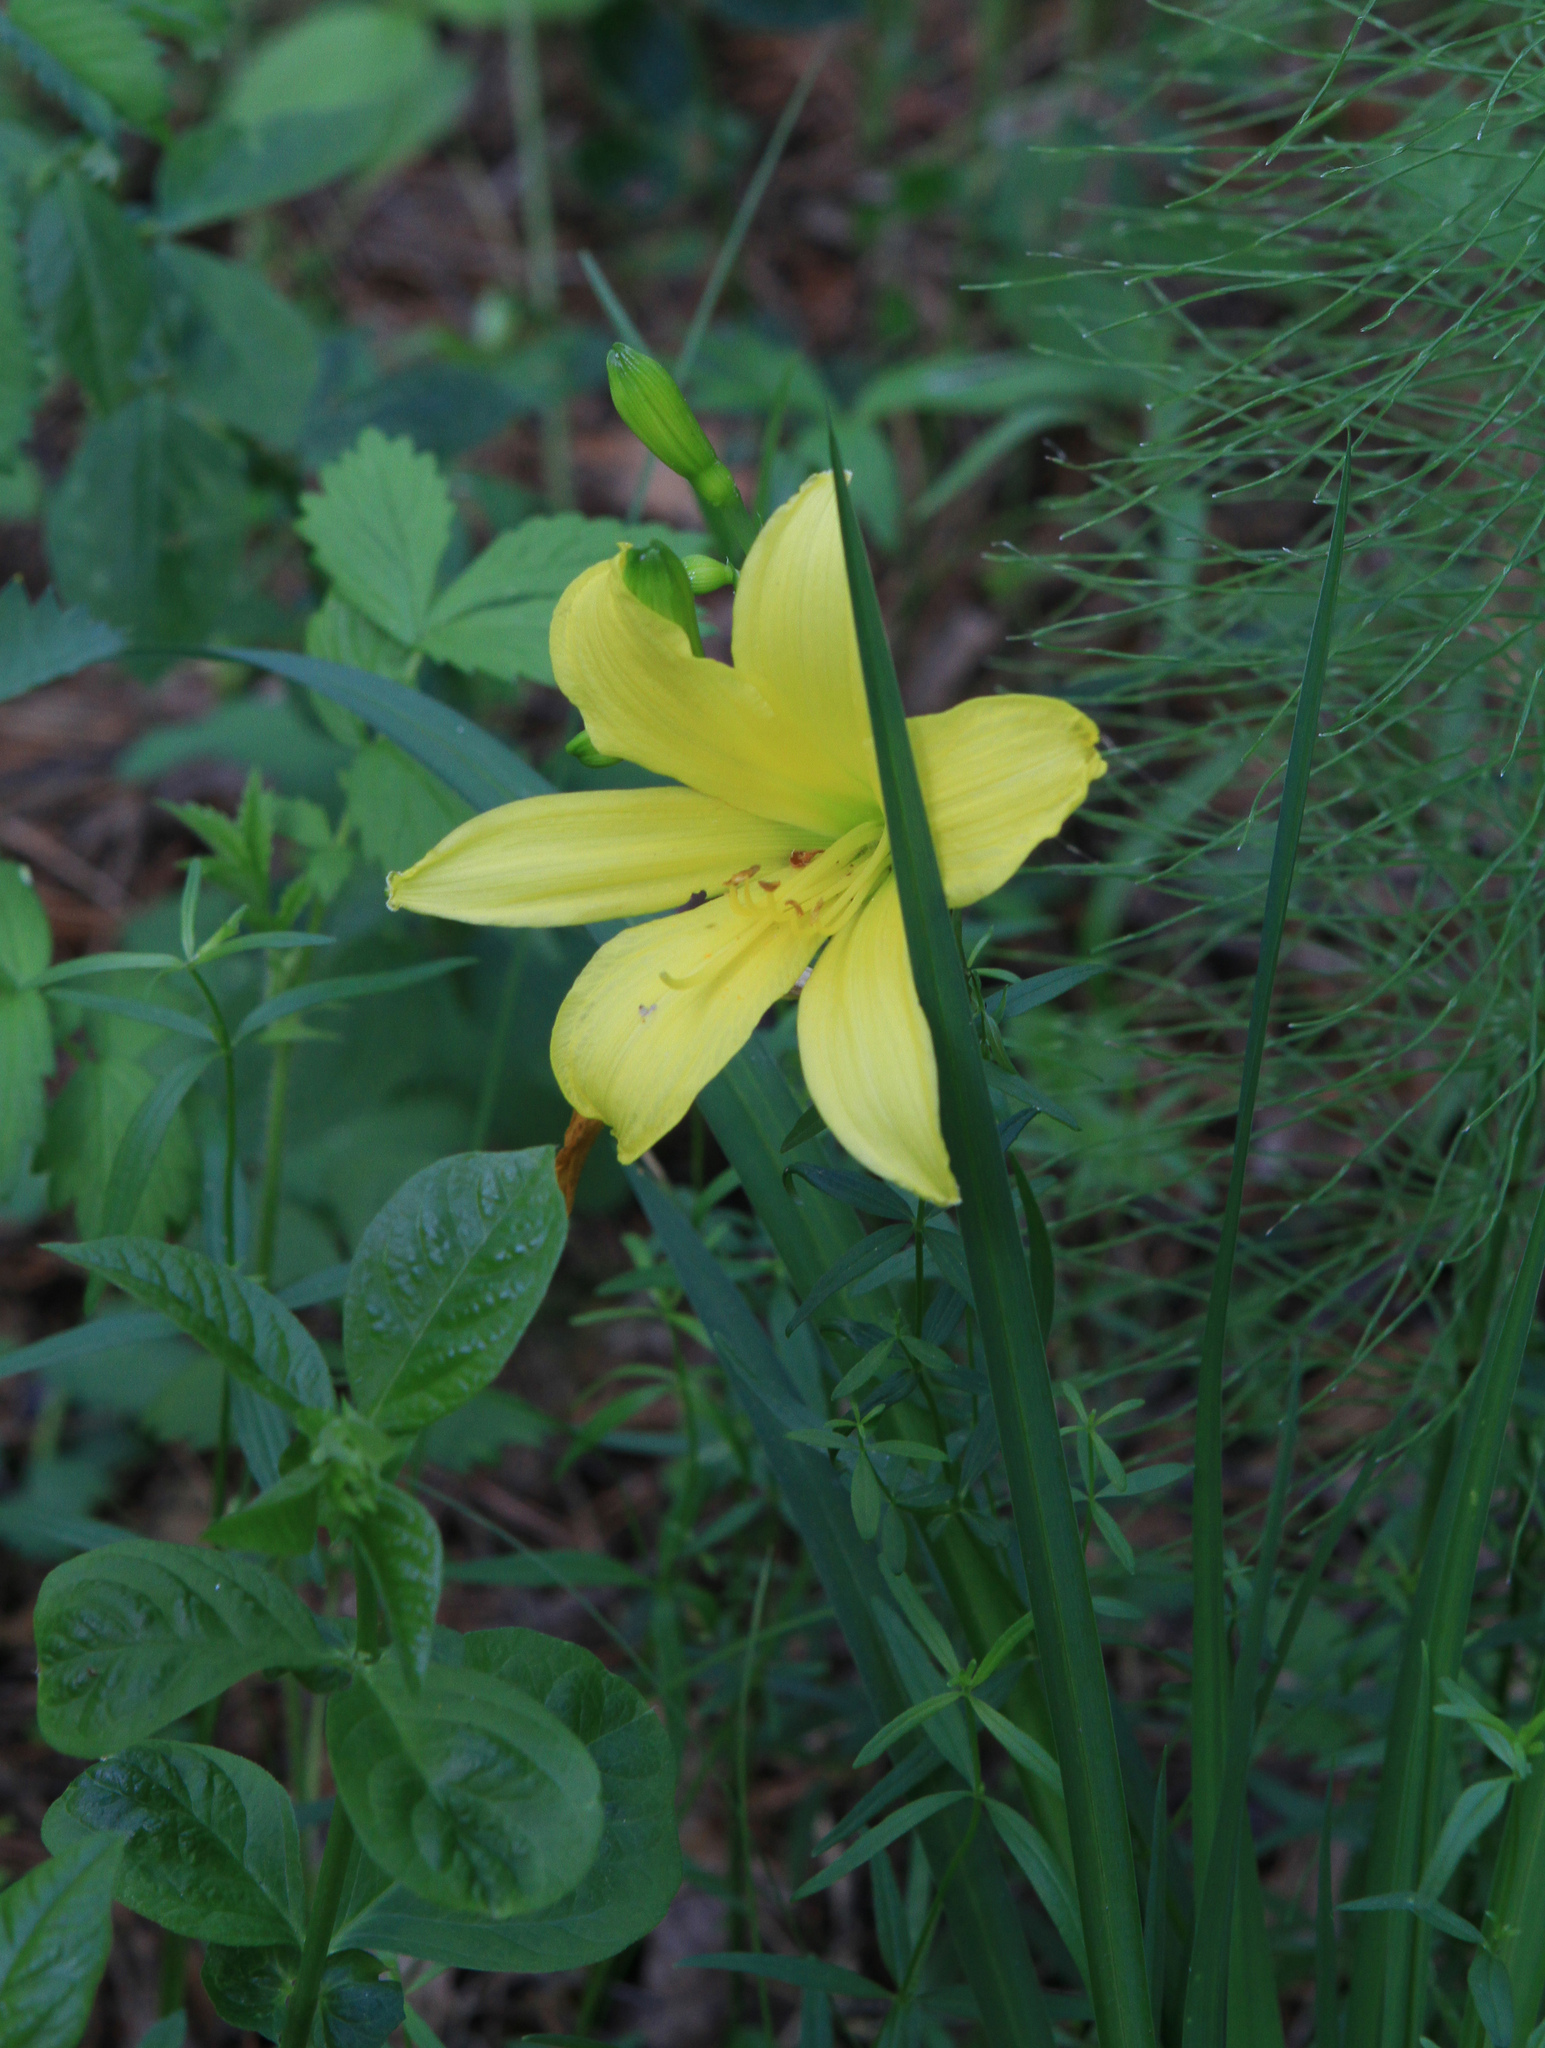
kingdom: Plantae
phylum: Tracheophyta
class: Liliopsida
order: Asparagales
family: Asphodelaceae
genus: Hemerocallis
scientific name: Hemerocallis minor
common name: Small daylily
